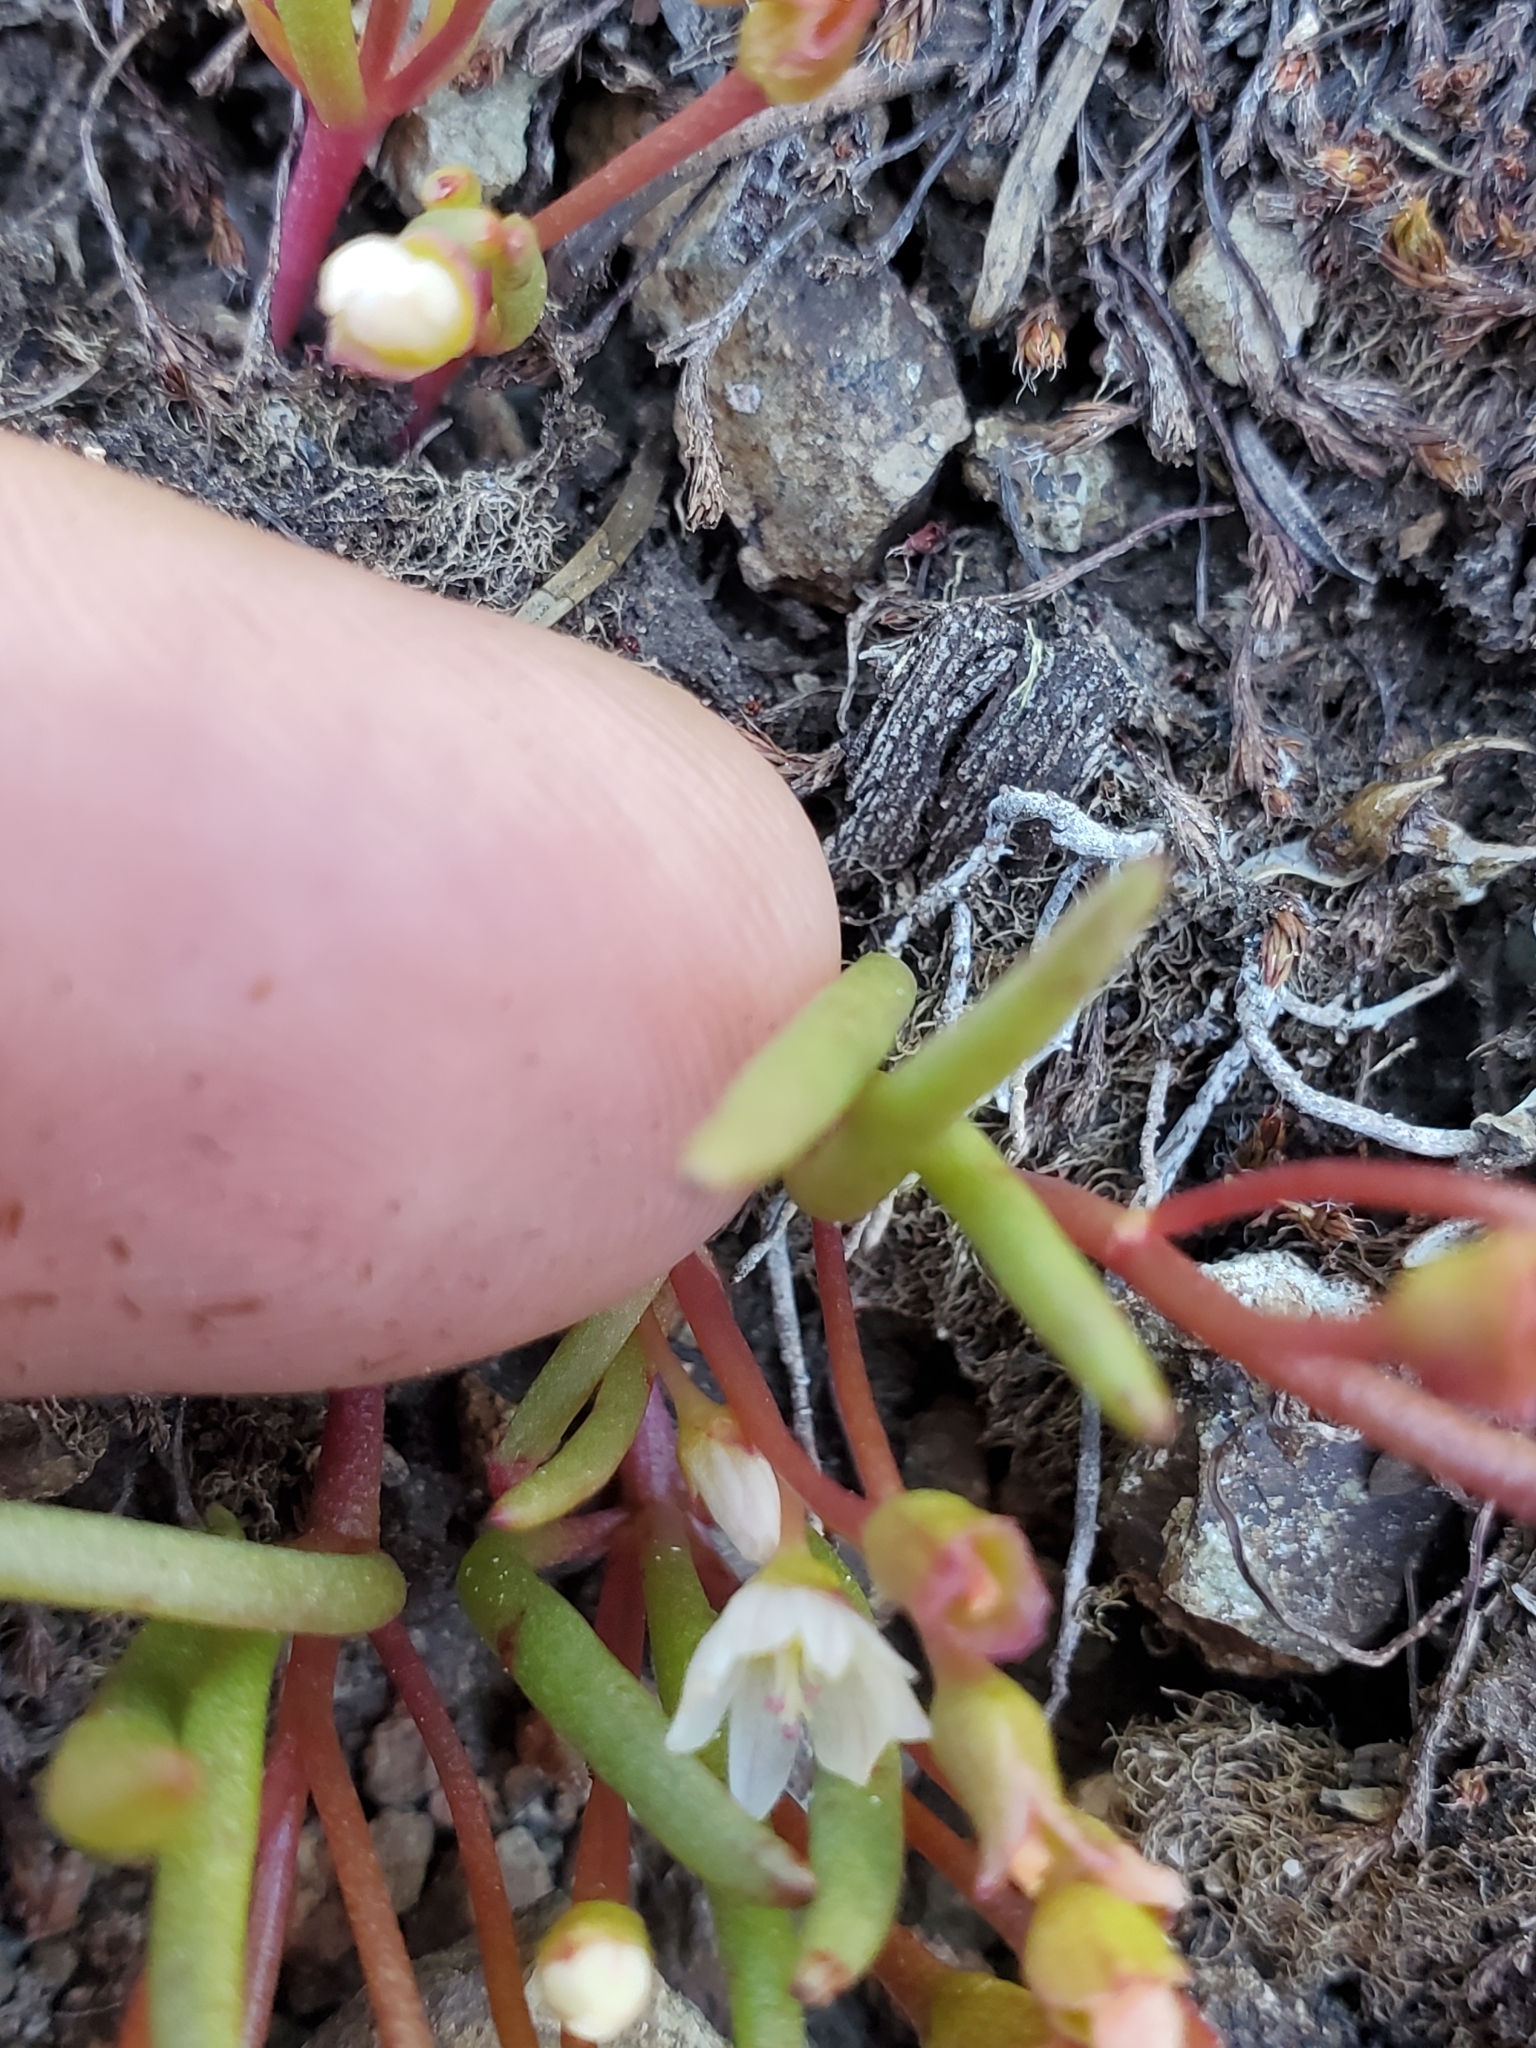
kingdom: Plantae
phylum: Tracheophyta
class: Magnoliopsida
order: Caryophyllales
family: Montiaceae
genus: Lewisia
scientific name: Lewisia triphylla
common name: Three-leaved bitterroot
